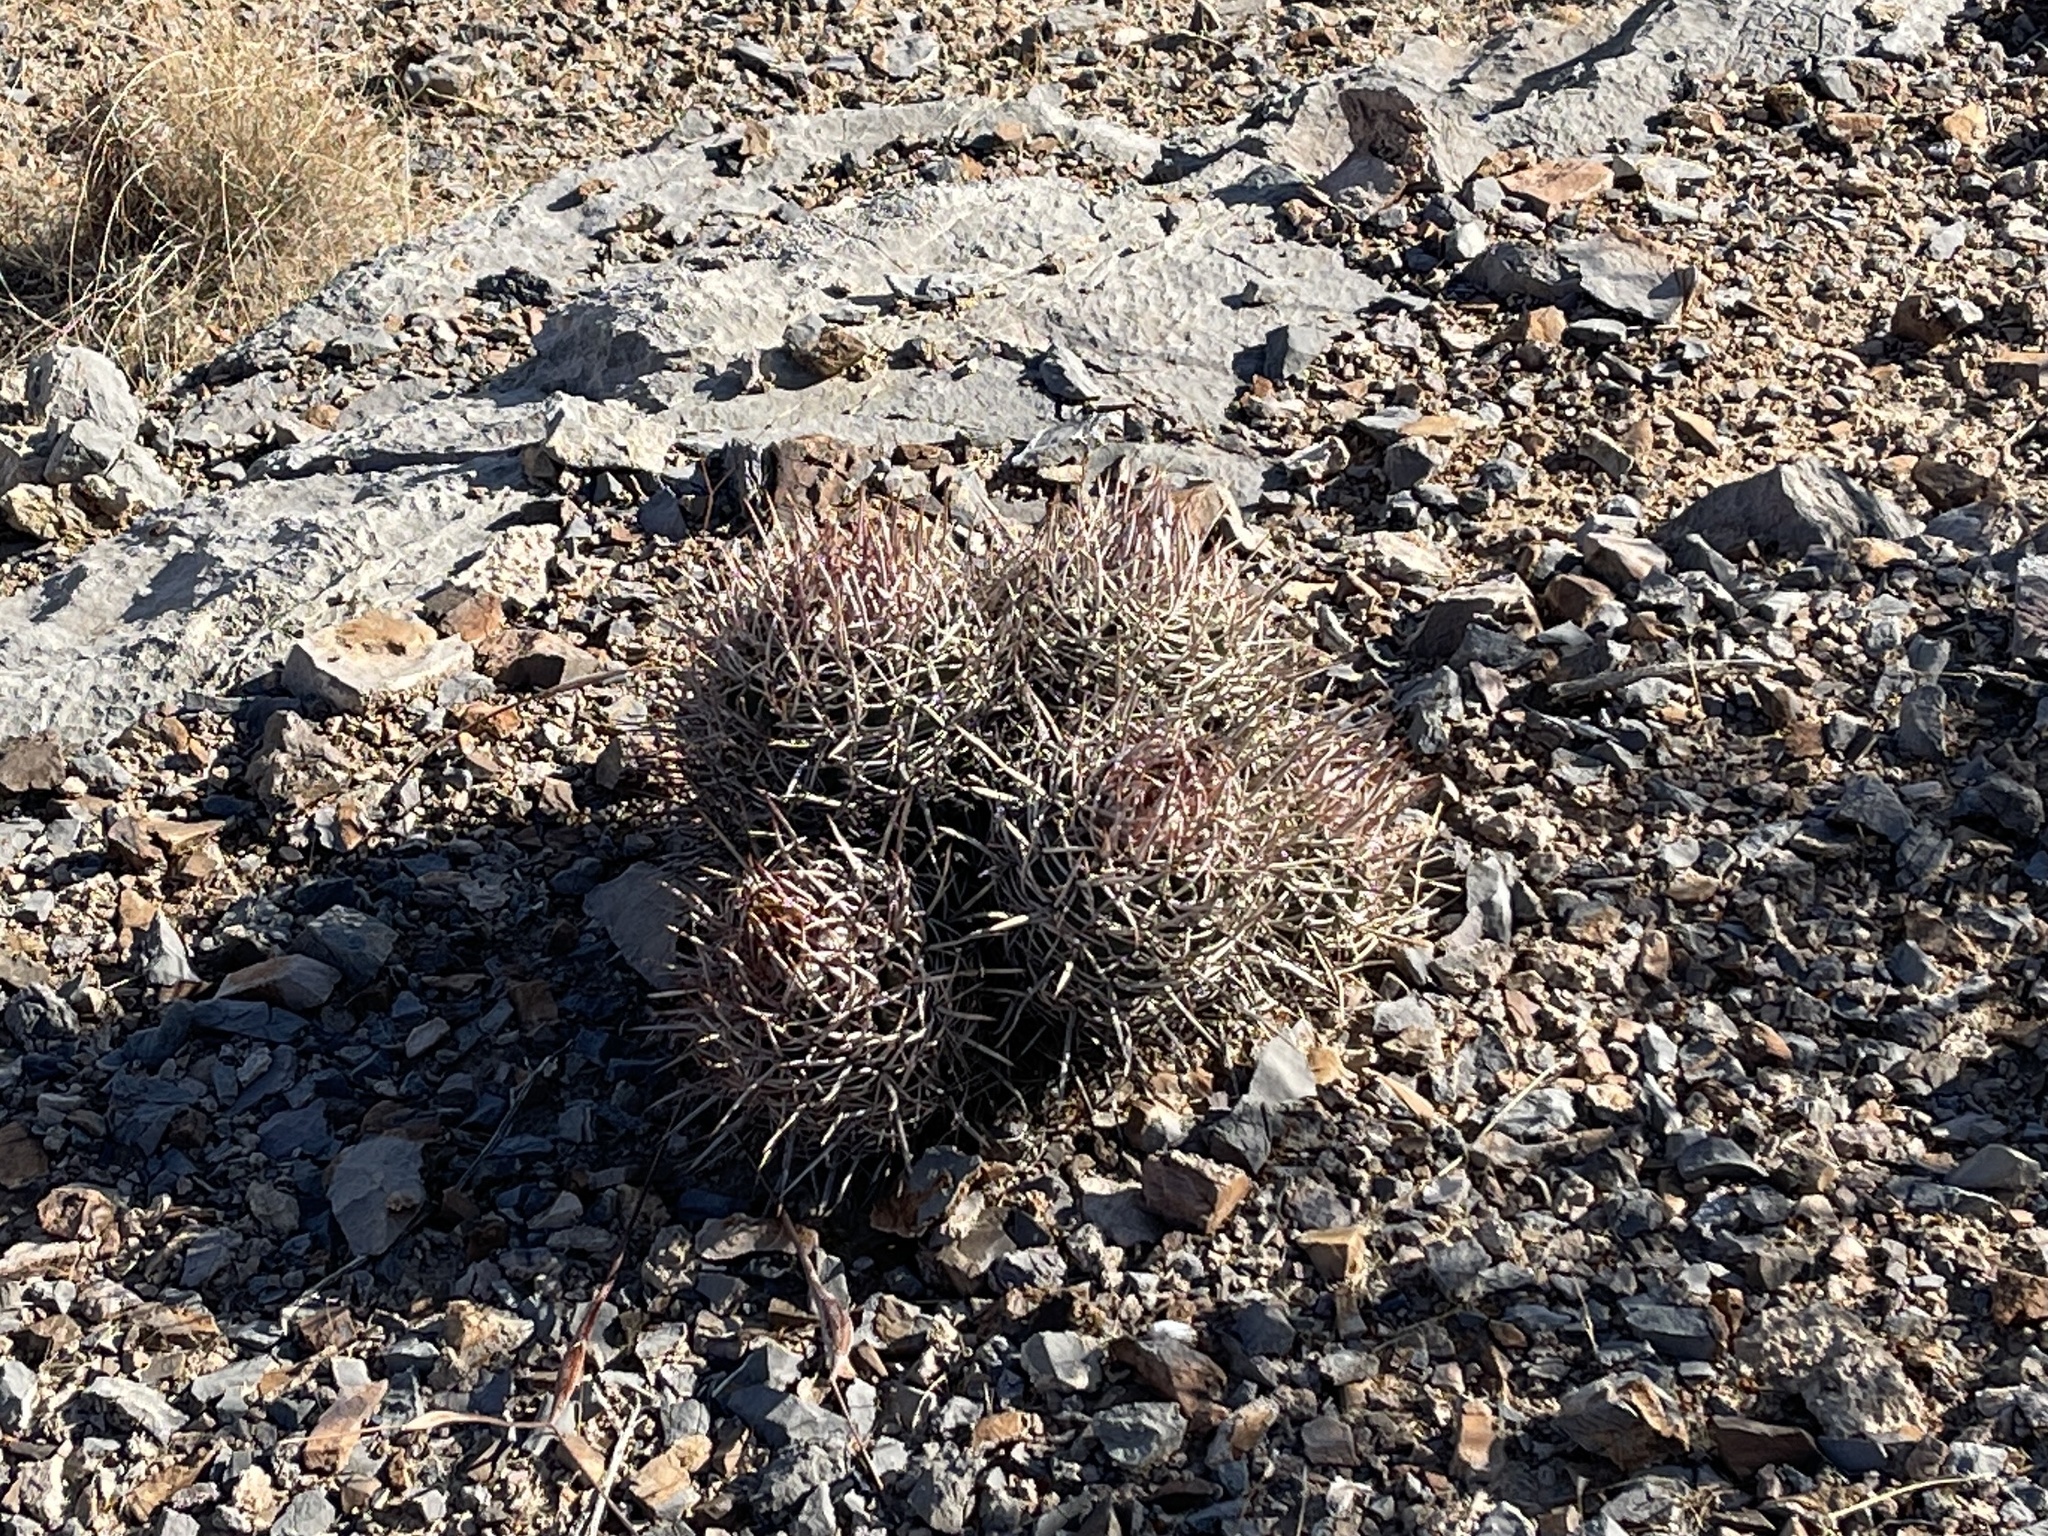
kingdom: Plantae
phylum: Tracheophyta
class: Magnoliopsida
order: Caryophyllales
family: Cactaceae
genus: Echinocactus
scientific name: Echinocactus polycephalus
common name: Cottontop cactus
